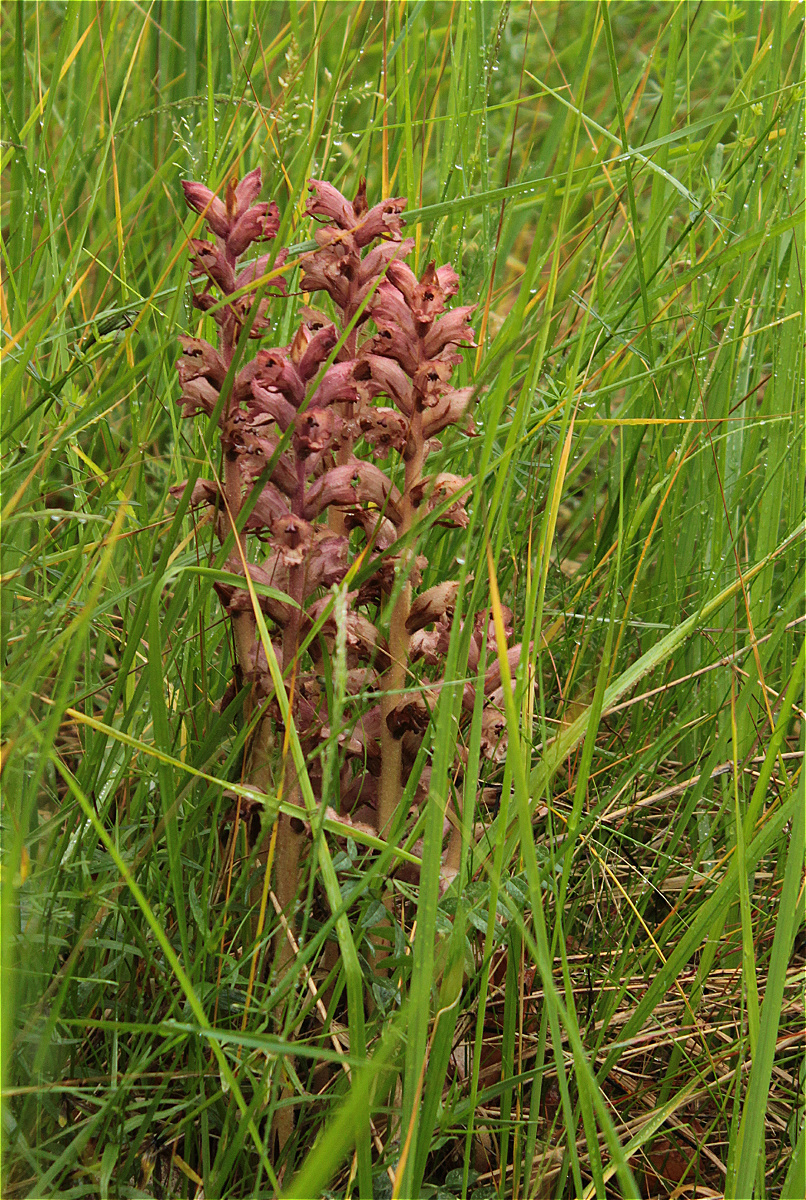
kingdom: Plantae
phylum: Tracheophyta
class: Magnoliopsida
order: Lamiales
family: Orobanchaceae
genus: Orobanche
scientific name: Orobanche caryophyllacea
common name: Bedstraw broomrape
